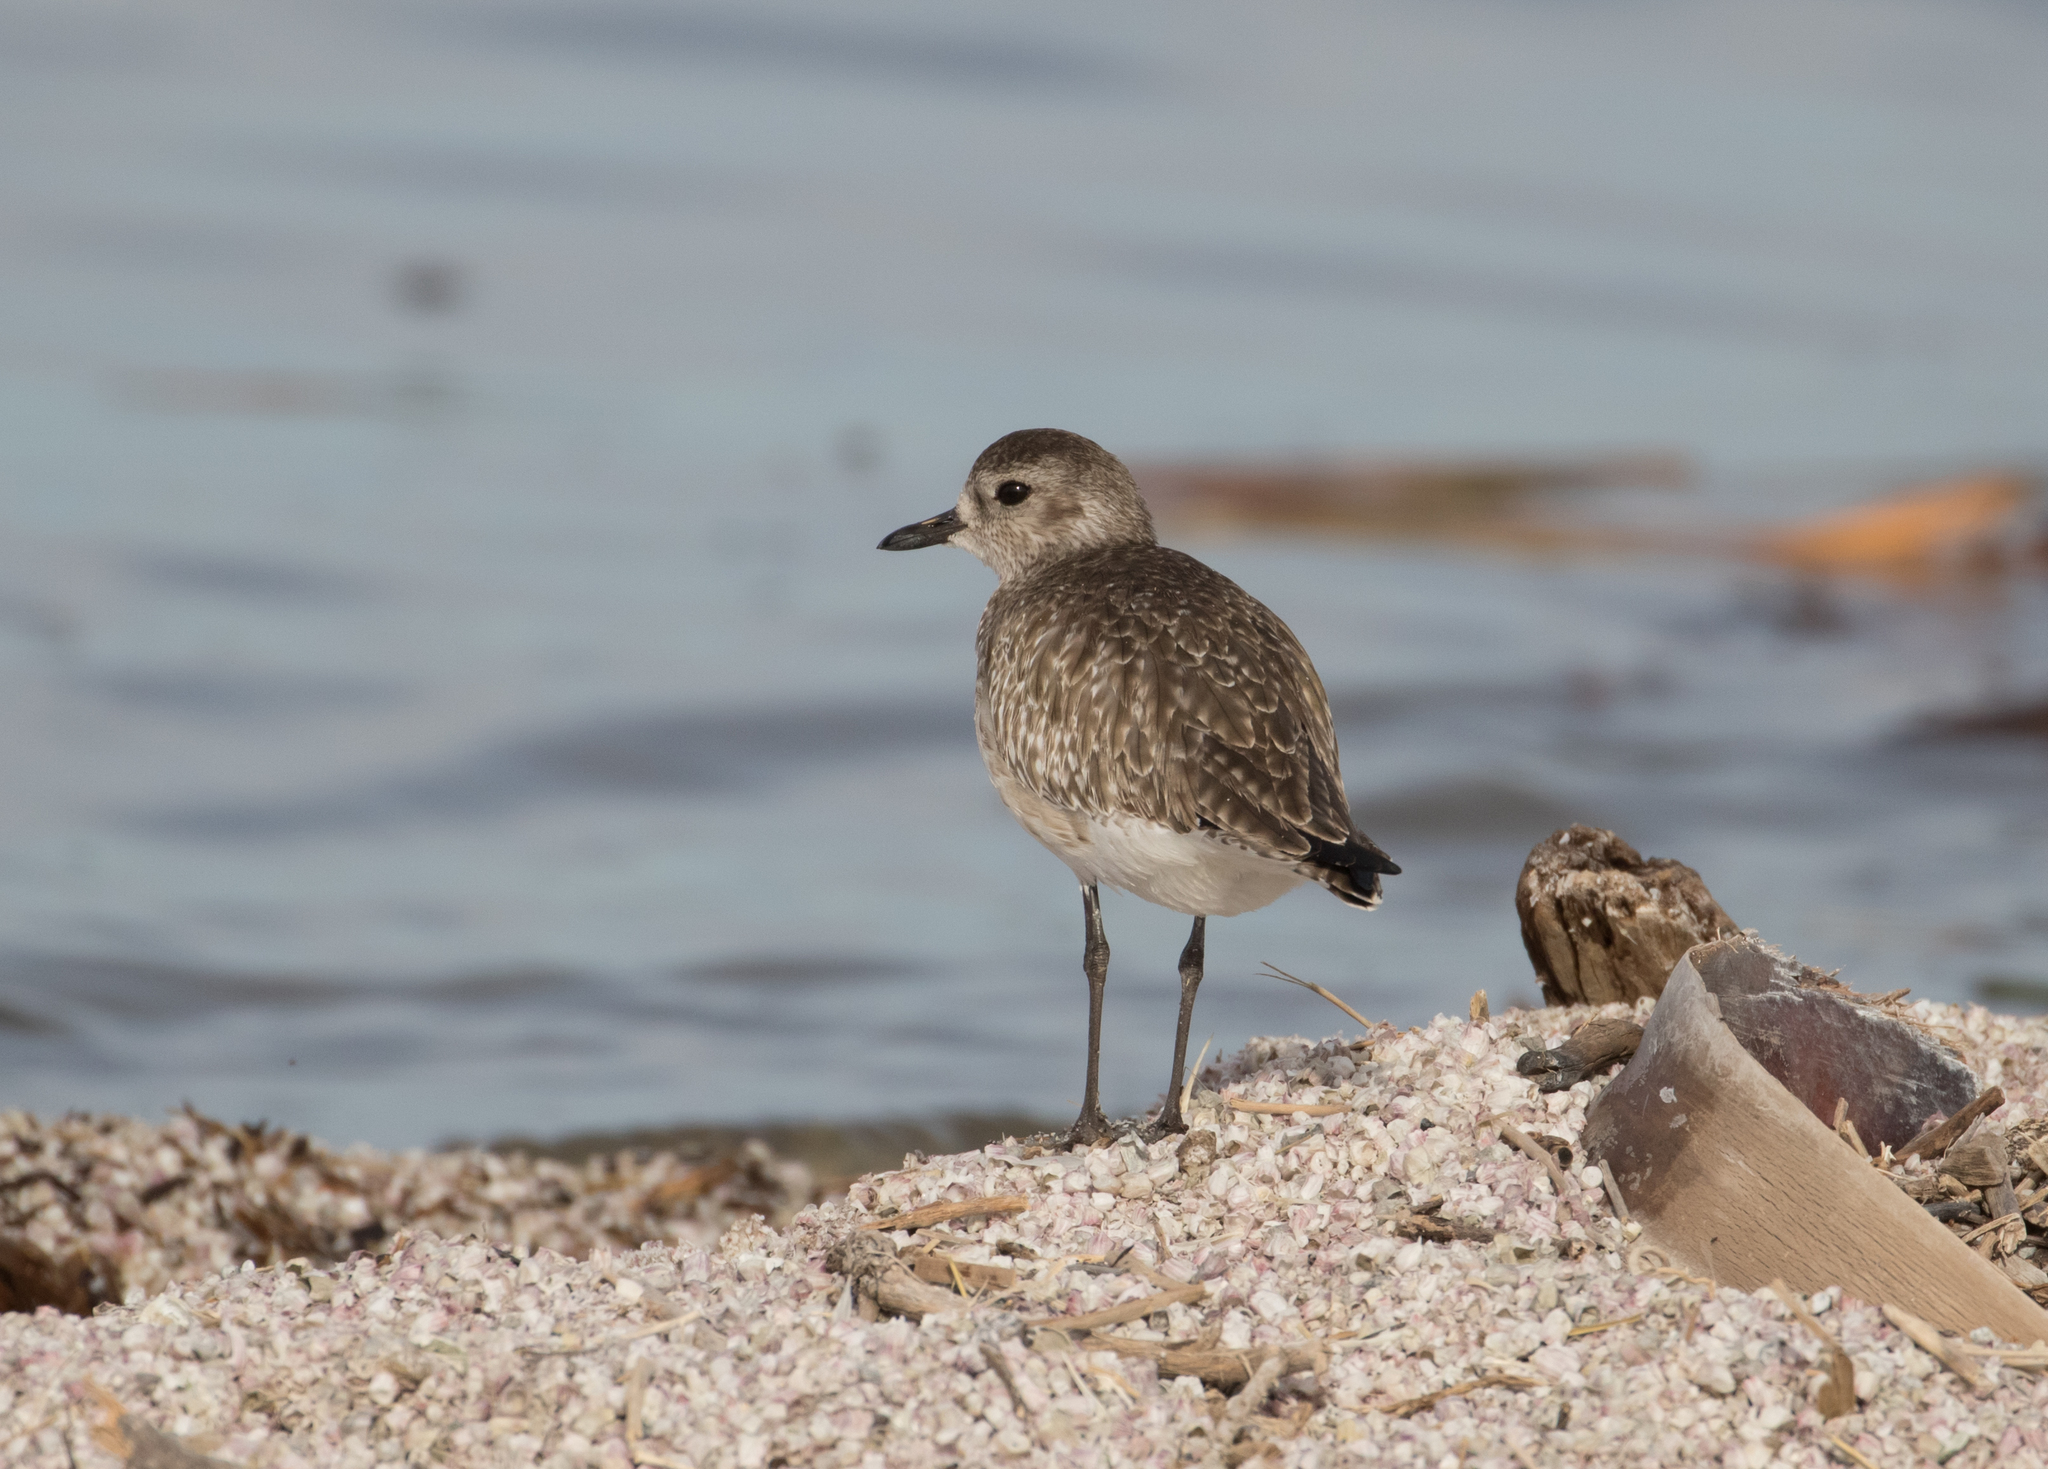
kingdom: Animalia
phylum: Chordata
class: Aves
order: Charadriiformes
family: Charadriidae
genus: Pluvialis
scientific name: Pluvialis squatarola
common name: Grey plover
